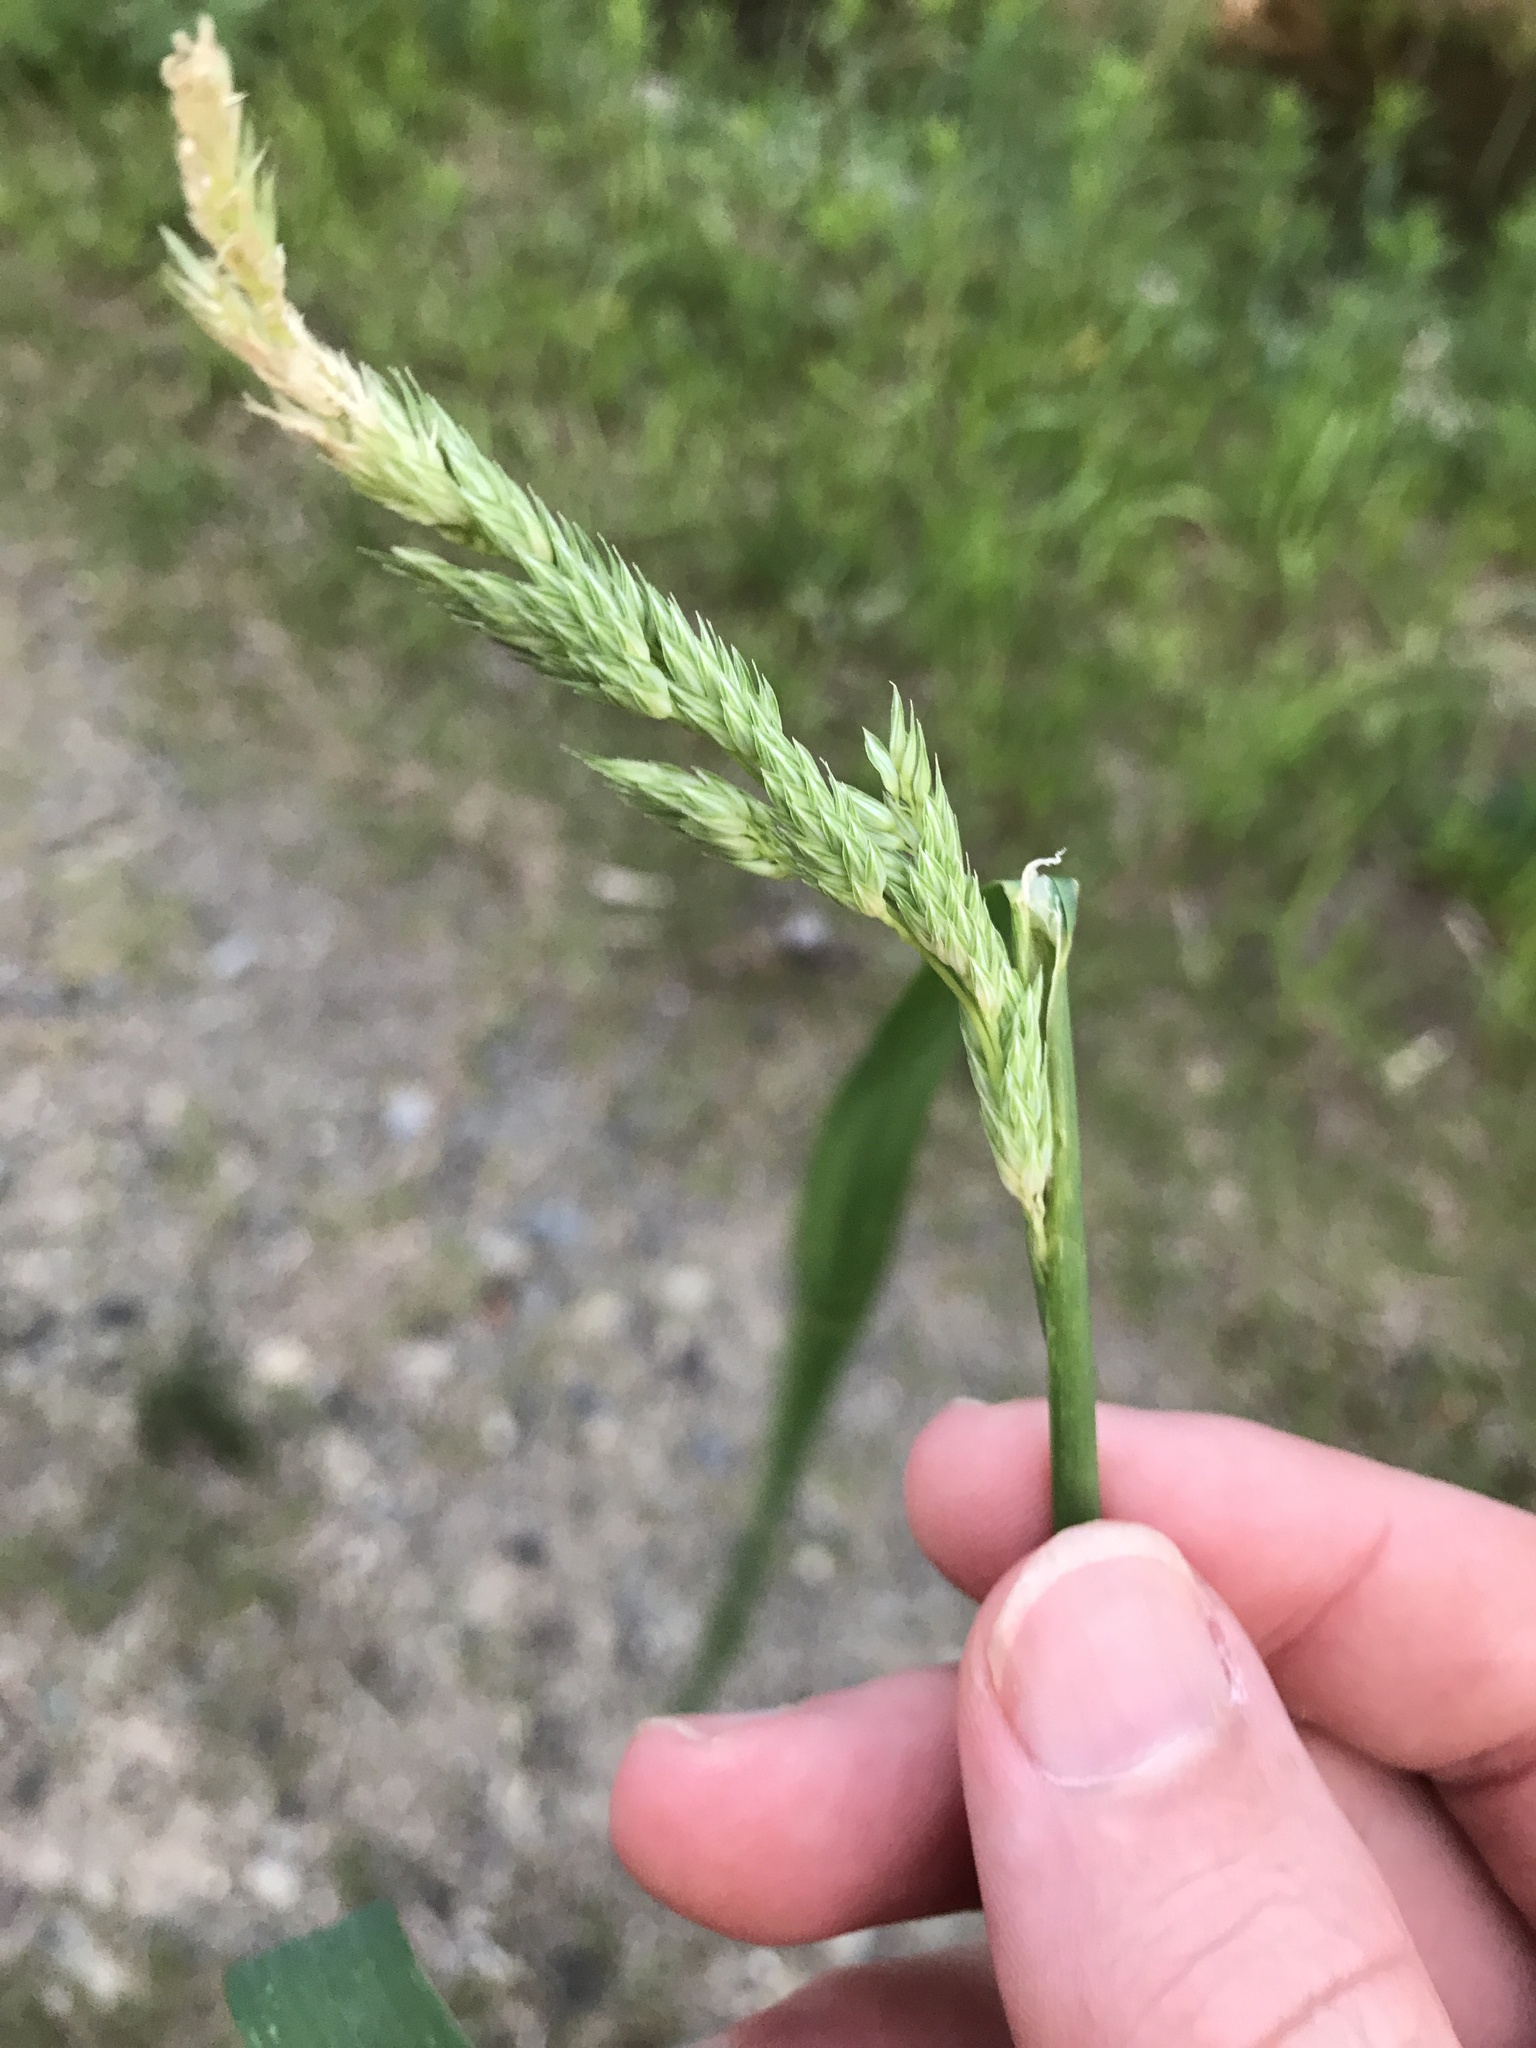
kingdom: Plantae
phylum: Tracheophyta
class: Liliopsida
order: Poales
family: Poaceae
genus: Phalaris
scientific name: Phalaris arundinacea
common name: Reed canary-grass
